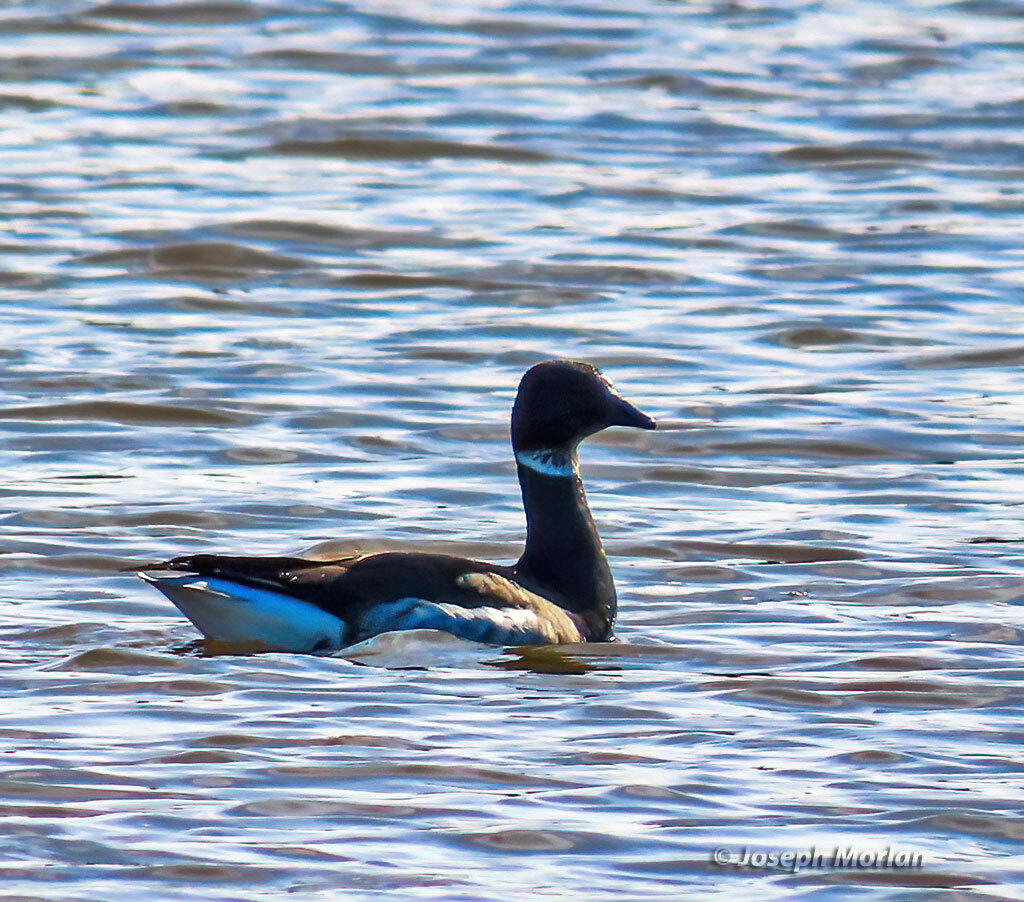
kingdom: Animalia
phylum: Chordata
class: Aves
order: Anseriformes
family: Anatidae
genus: Branta
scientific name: Branta bernicla
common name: Brant goose
